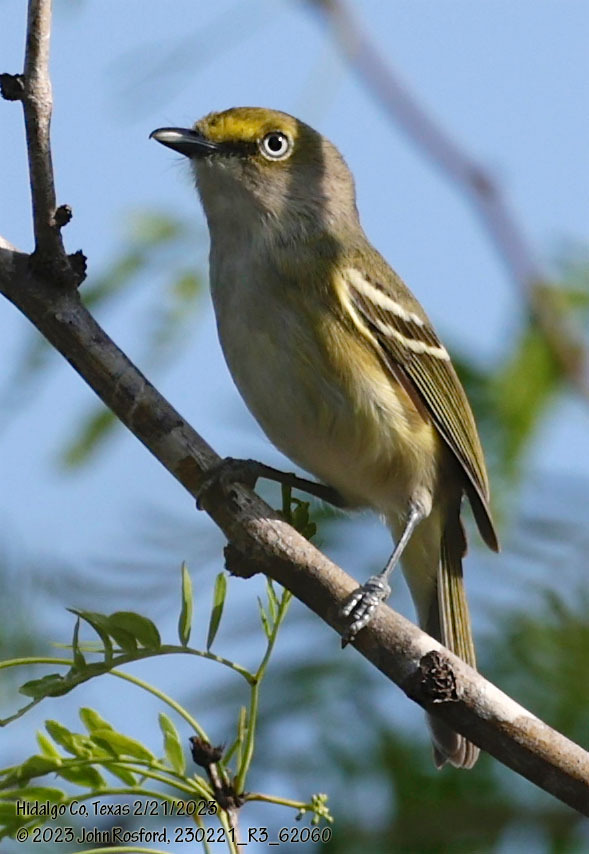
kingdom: Animalia
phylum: Chordata
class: Aves
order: Passeriformes
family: Vireonidae
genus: Vireo
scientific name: Vireo griseus
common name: White-eyed vireo
